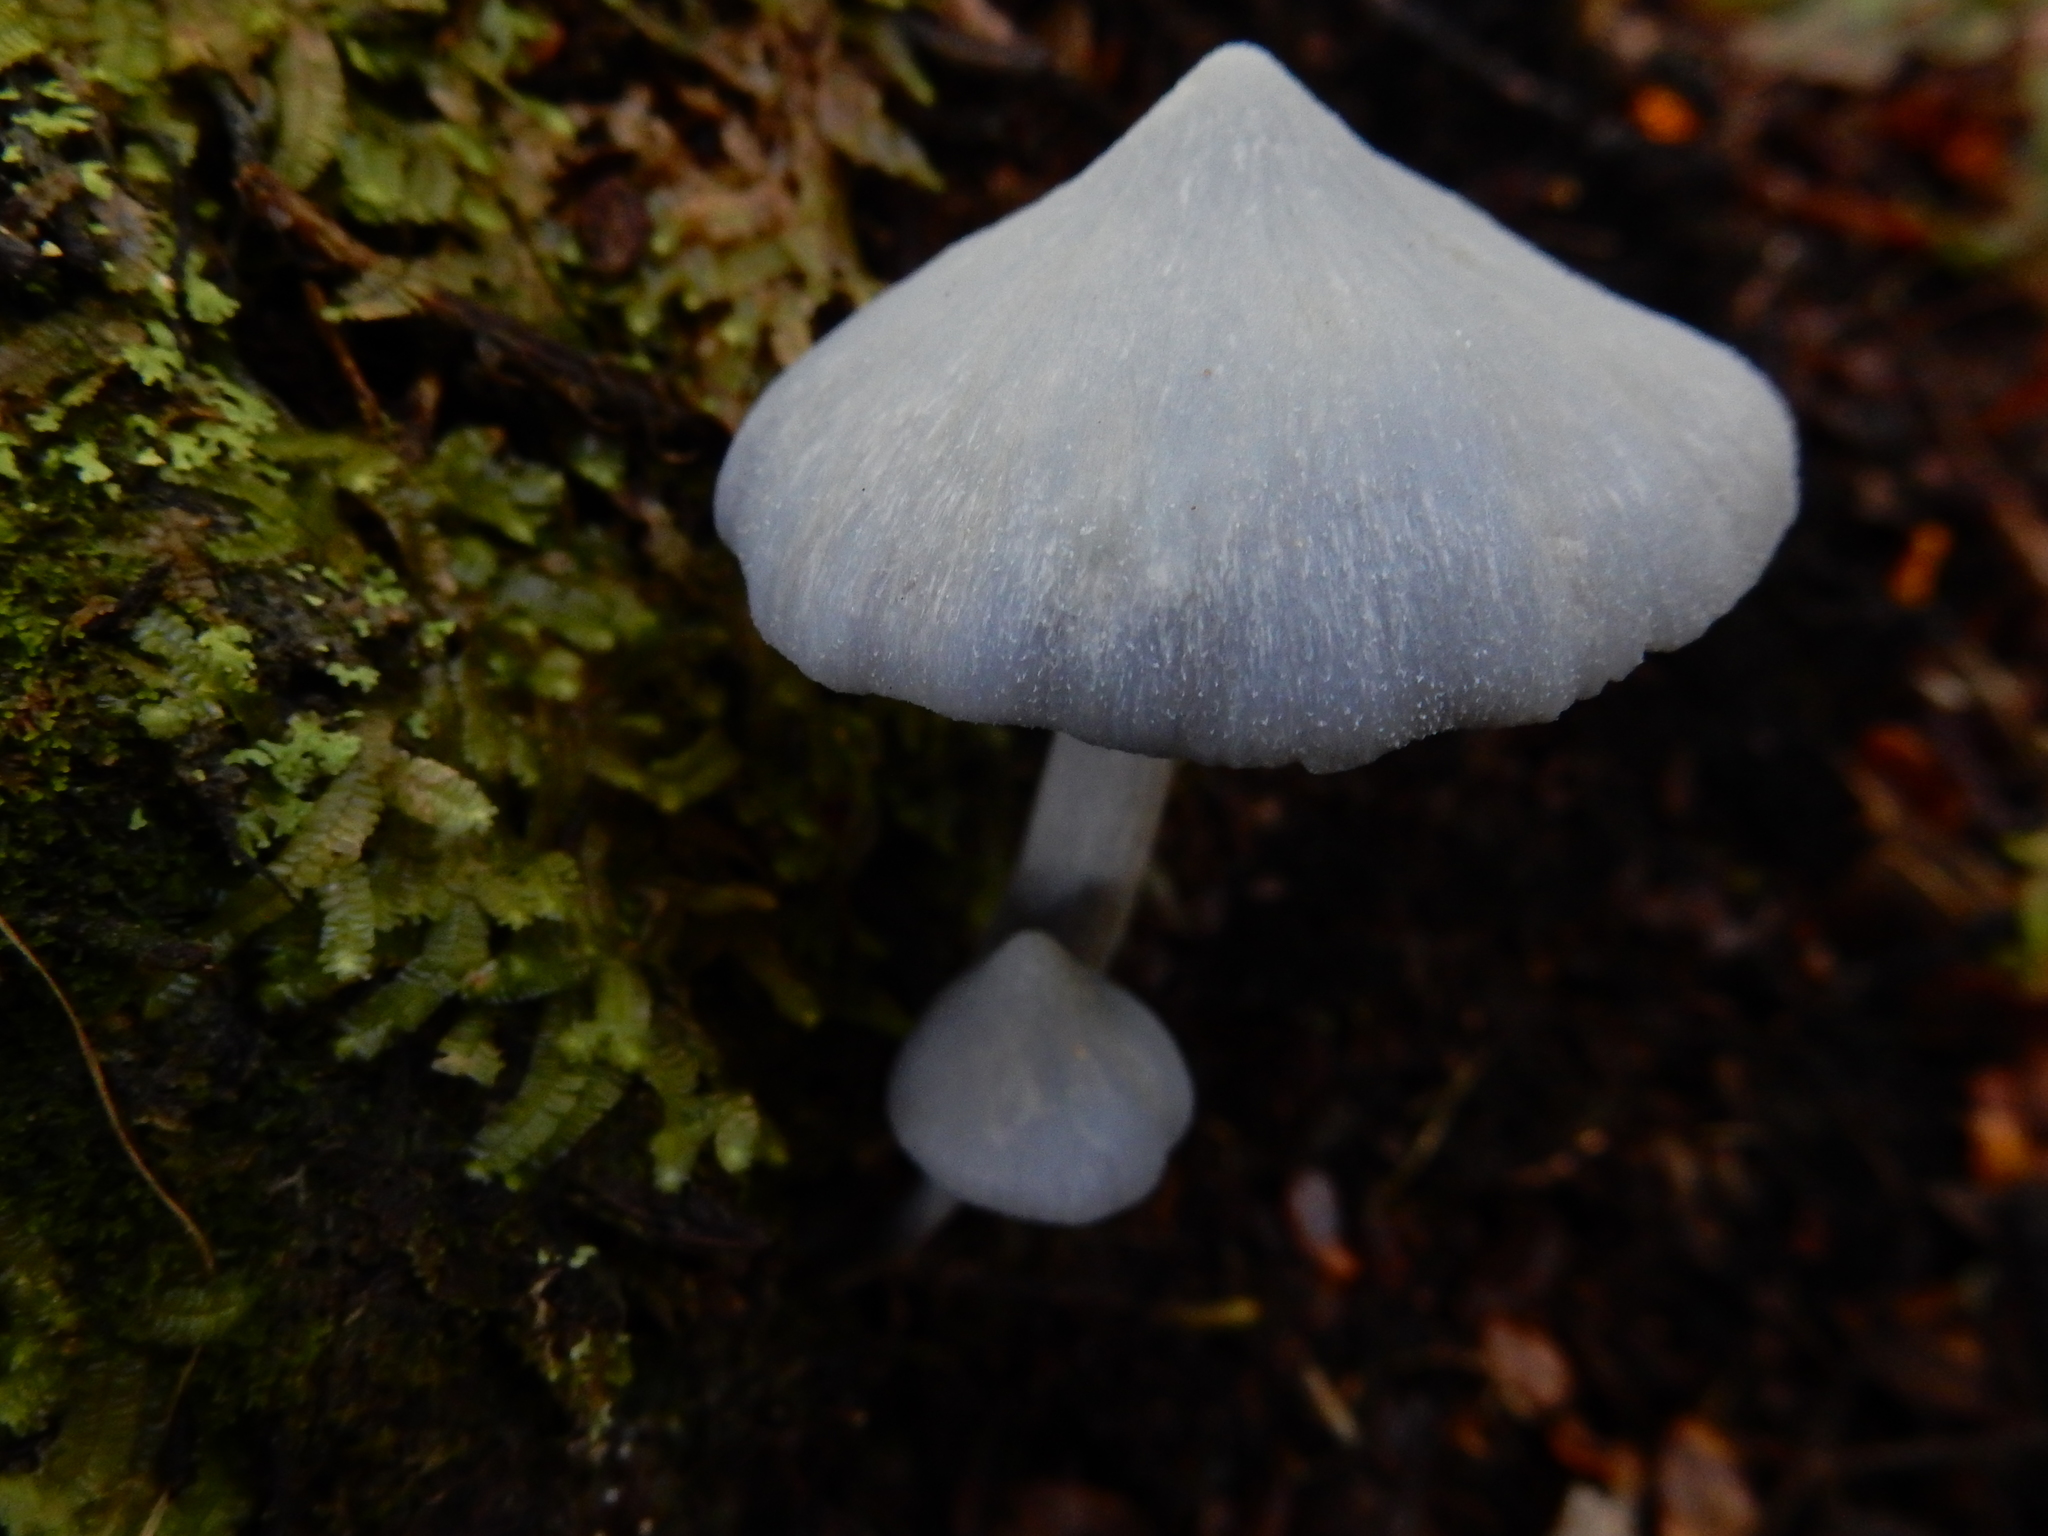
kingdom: Fungi
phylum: Basidiomycota
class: Agaricomycetes
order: Agaricales
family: Entolomataceae
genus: Entoloma
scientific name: Entoloma canoconicum
